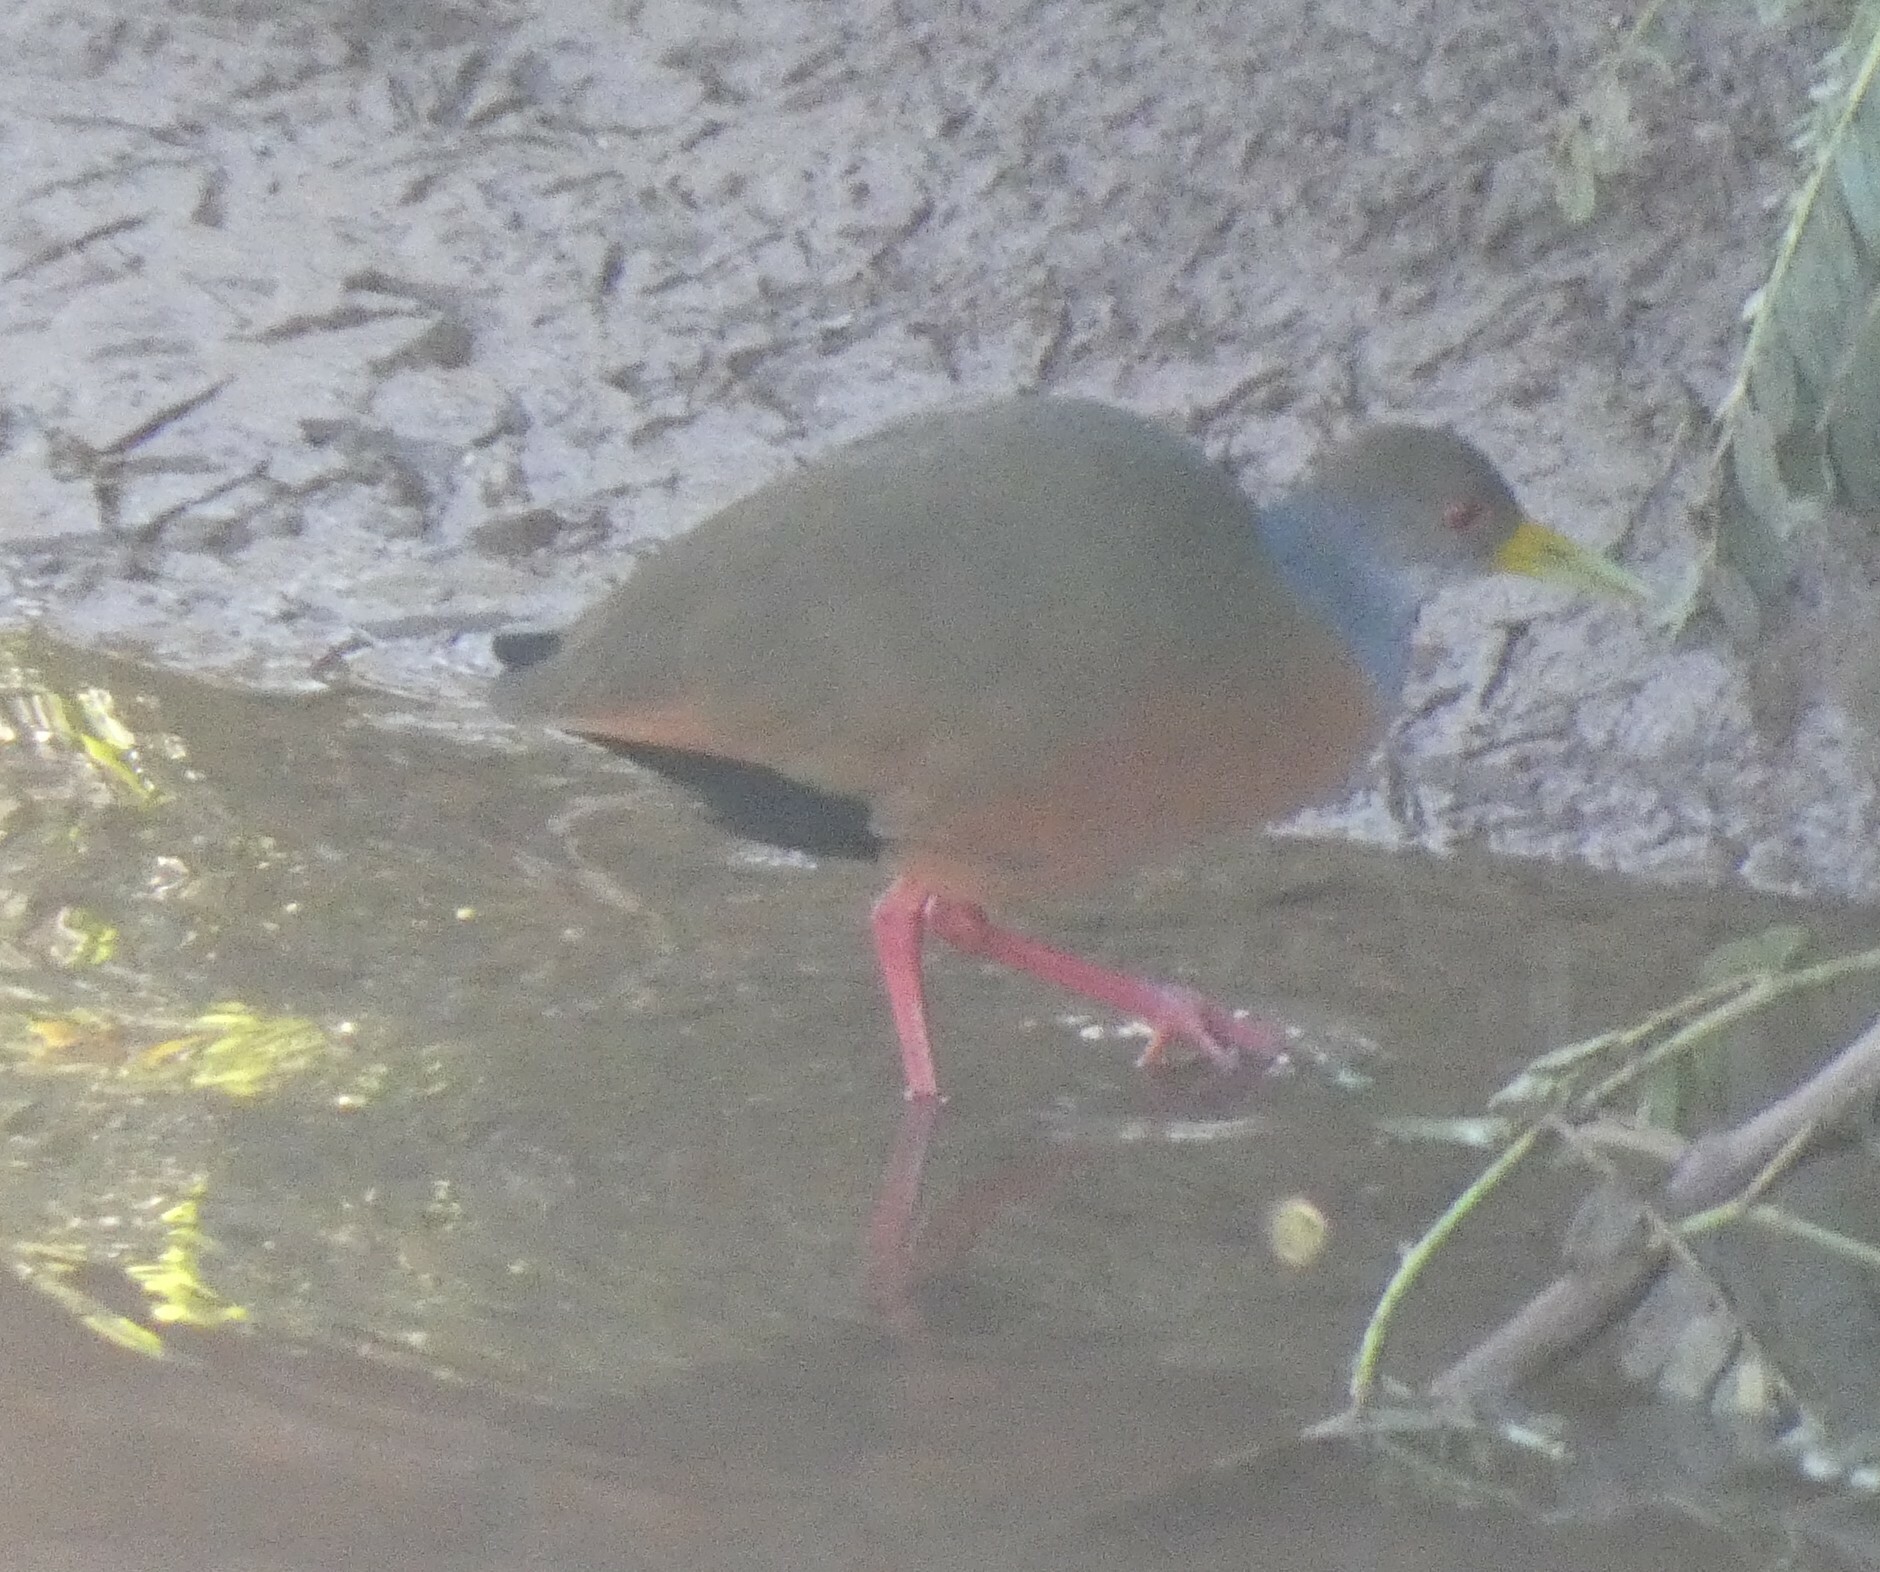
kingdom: Animalia
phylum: Chordata
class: Aves
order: Gruiformes
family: Rallidae
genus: Aramides
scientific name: Aramides cajanea
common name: Gray-necked wood-rail
